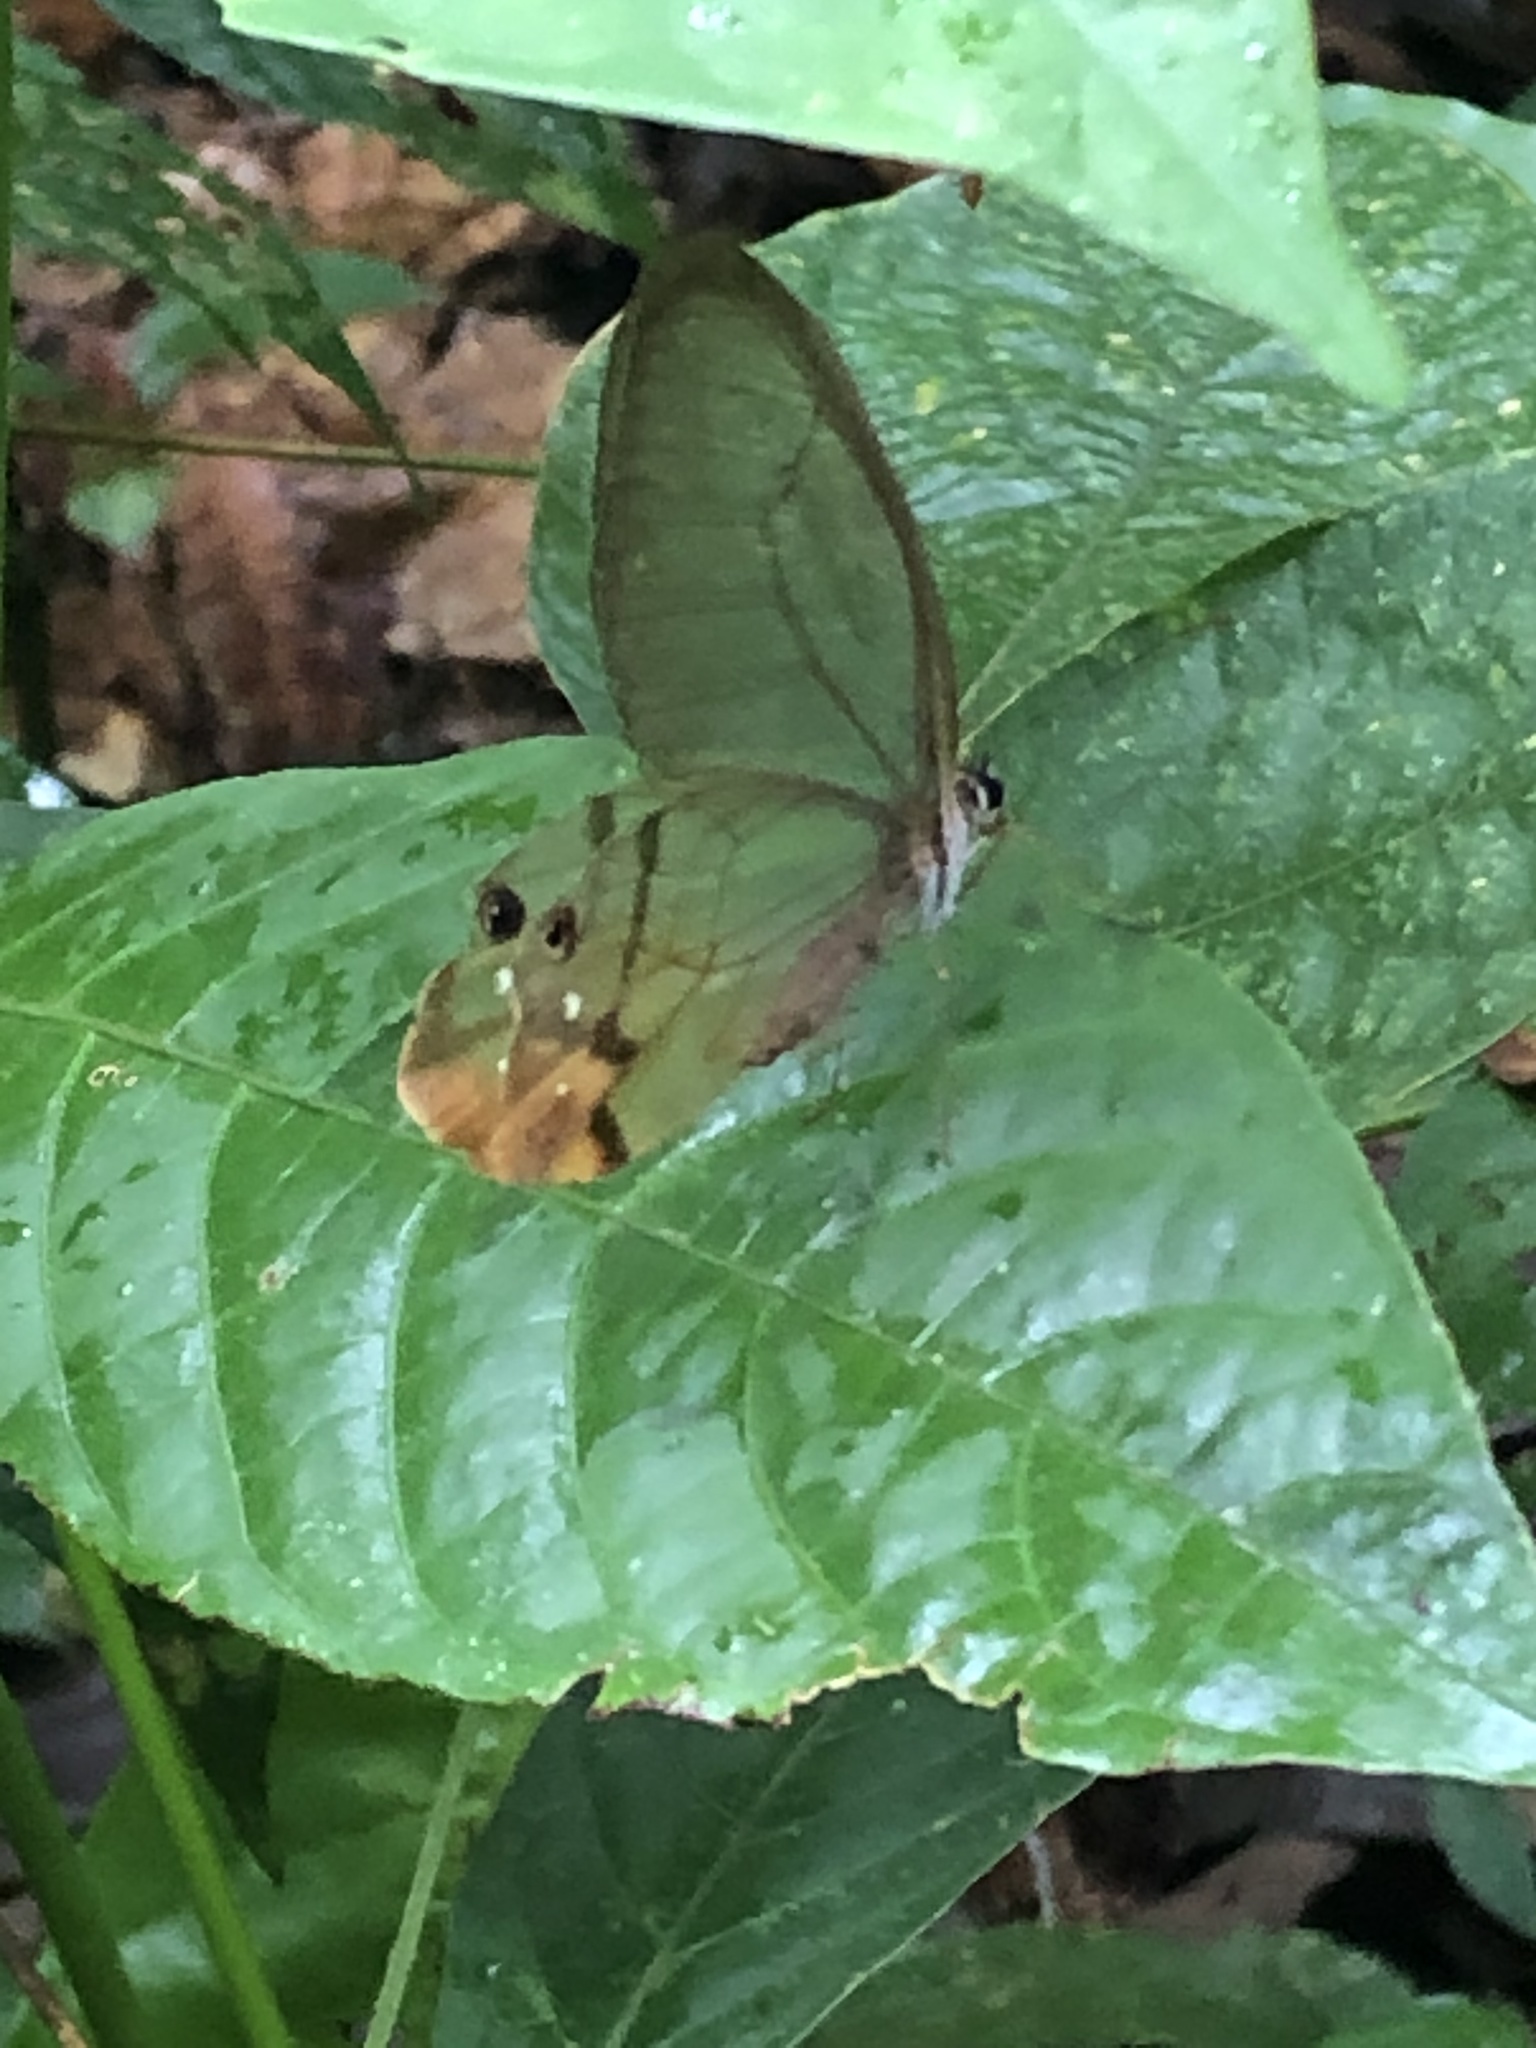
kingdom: Animalia
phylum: Arthropoda
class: Insecta
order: Lepidoptera
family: Nymphalidae
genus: Haetera
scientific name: Haetera piera
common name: Amber phantom
